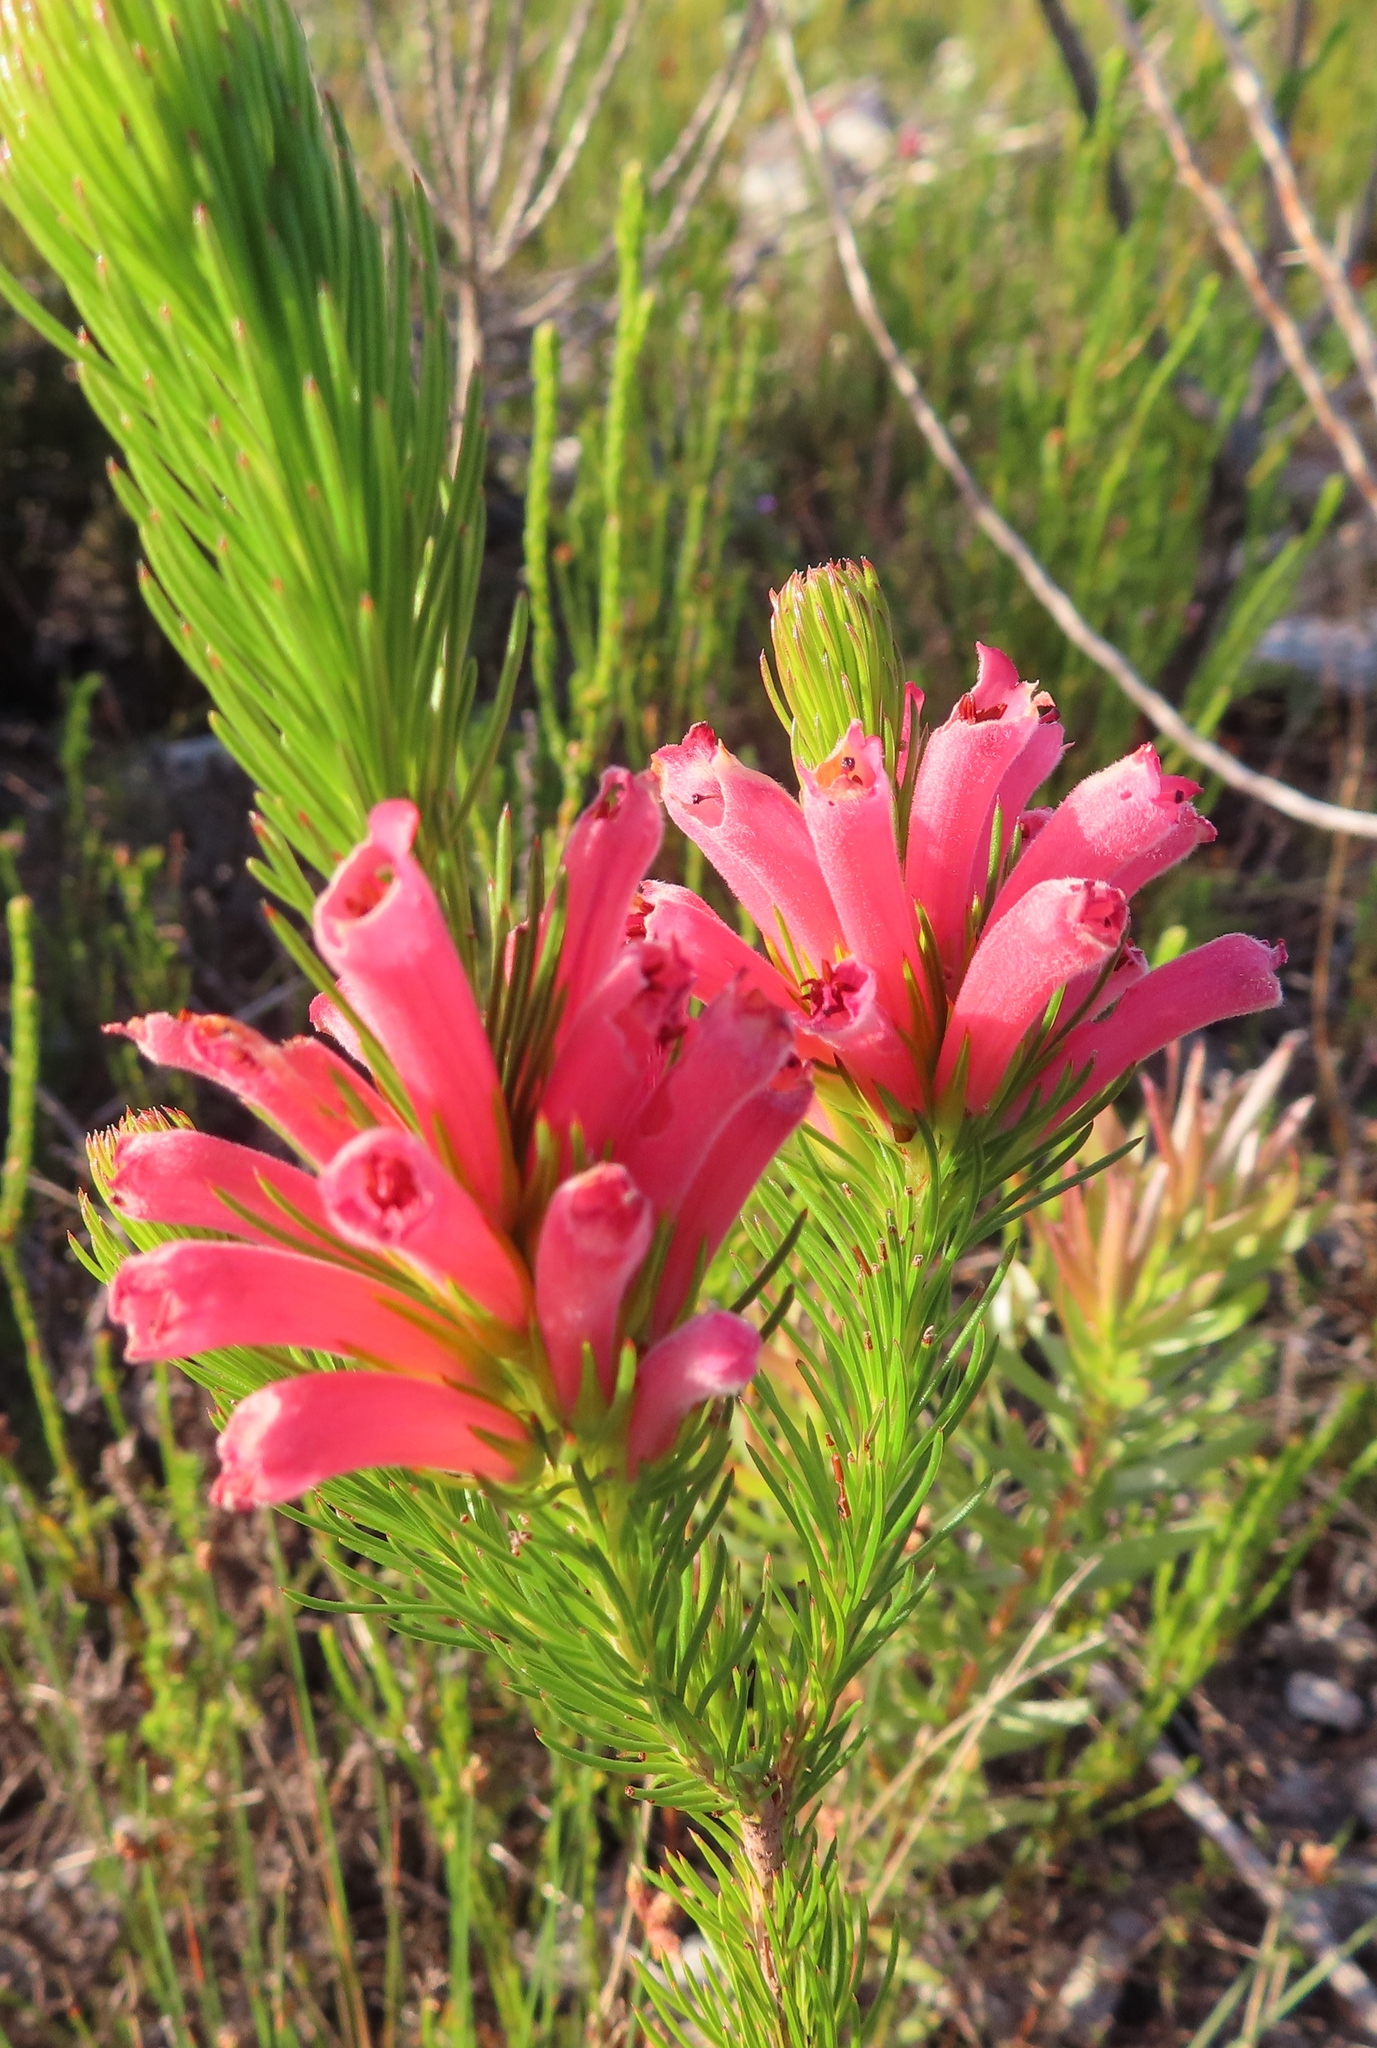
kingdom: Plantae
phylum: Tracheophyta
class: Magnoliopsida
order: Ericales
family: Ericaceae
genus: Erica
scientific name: Erica vestita
